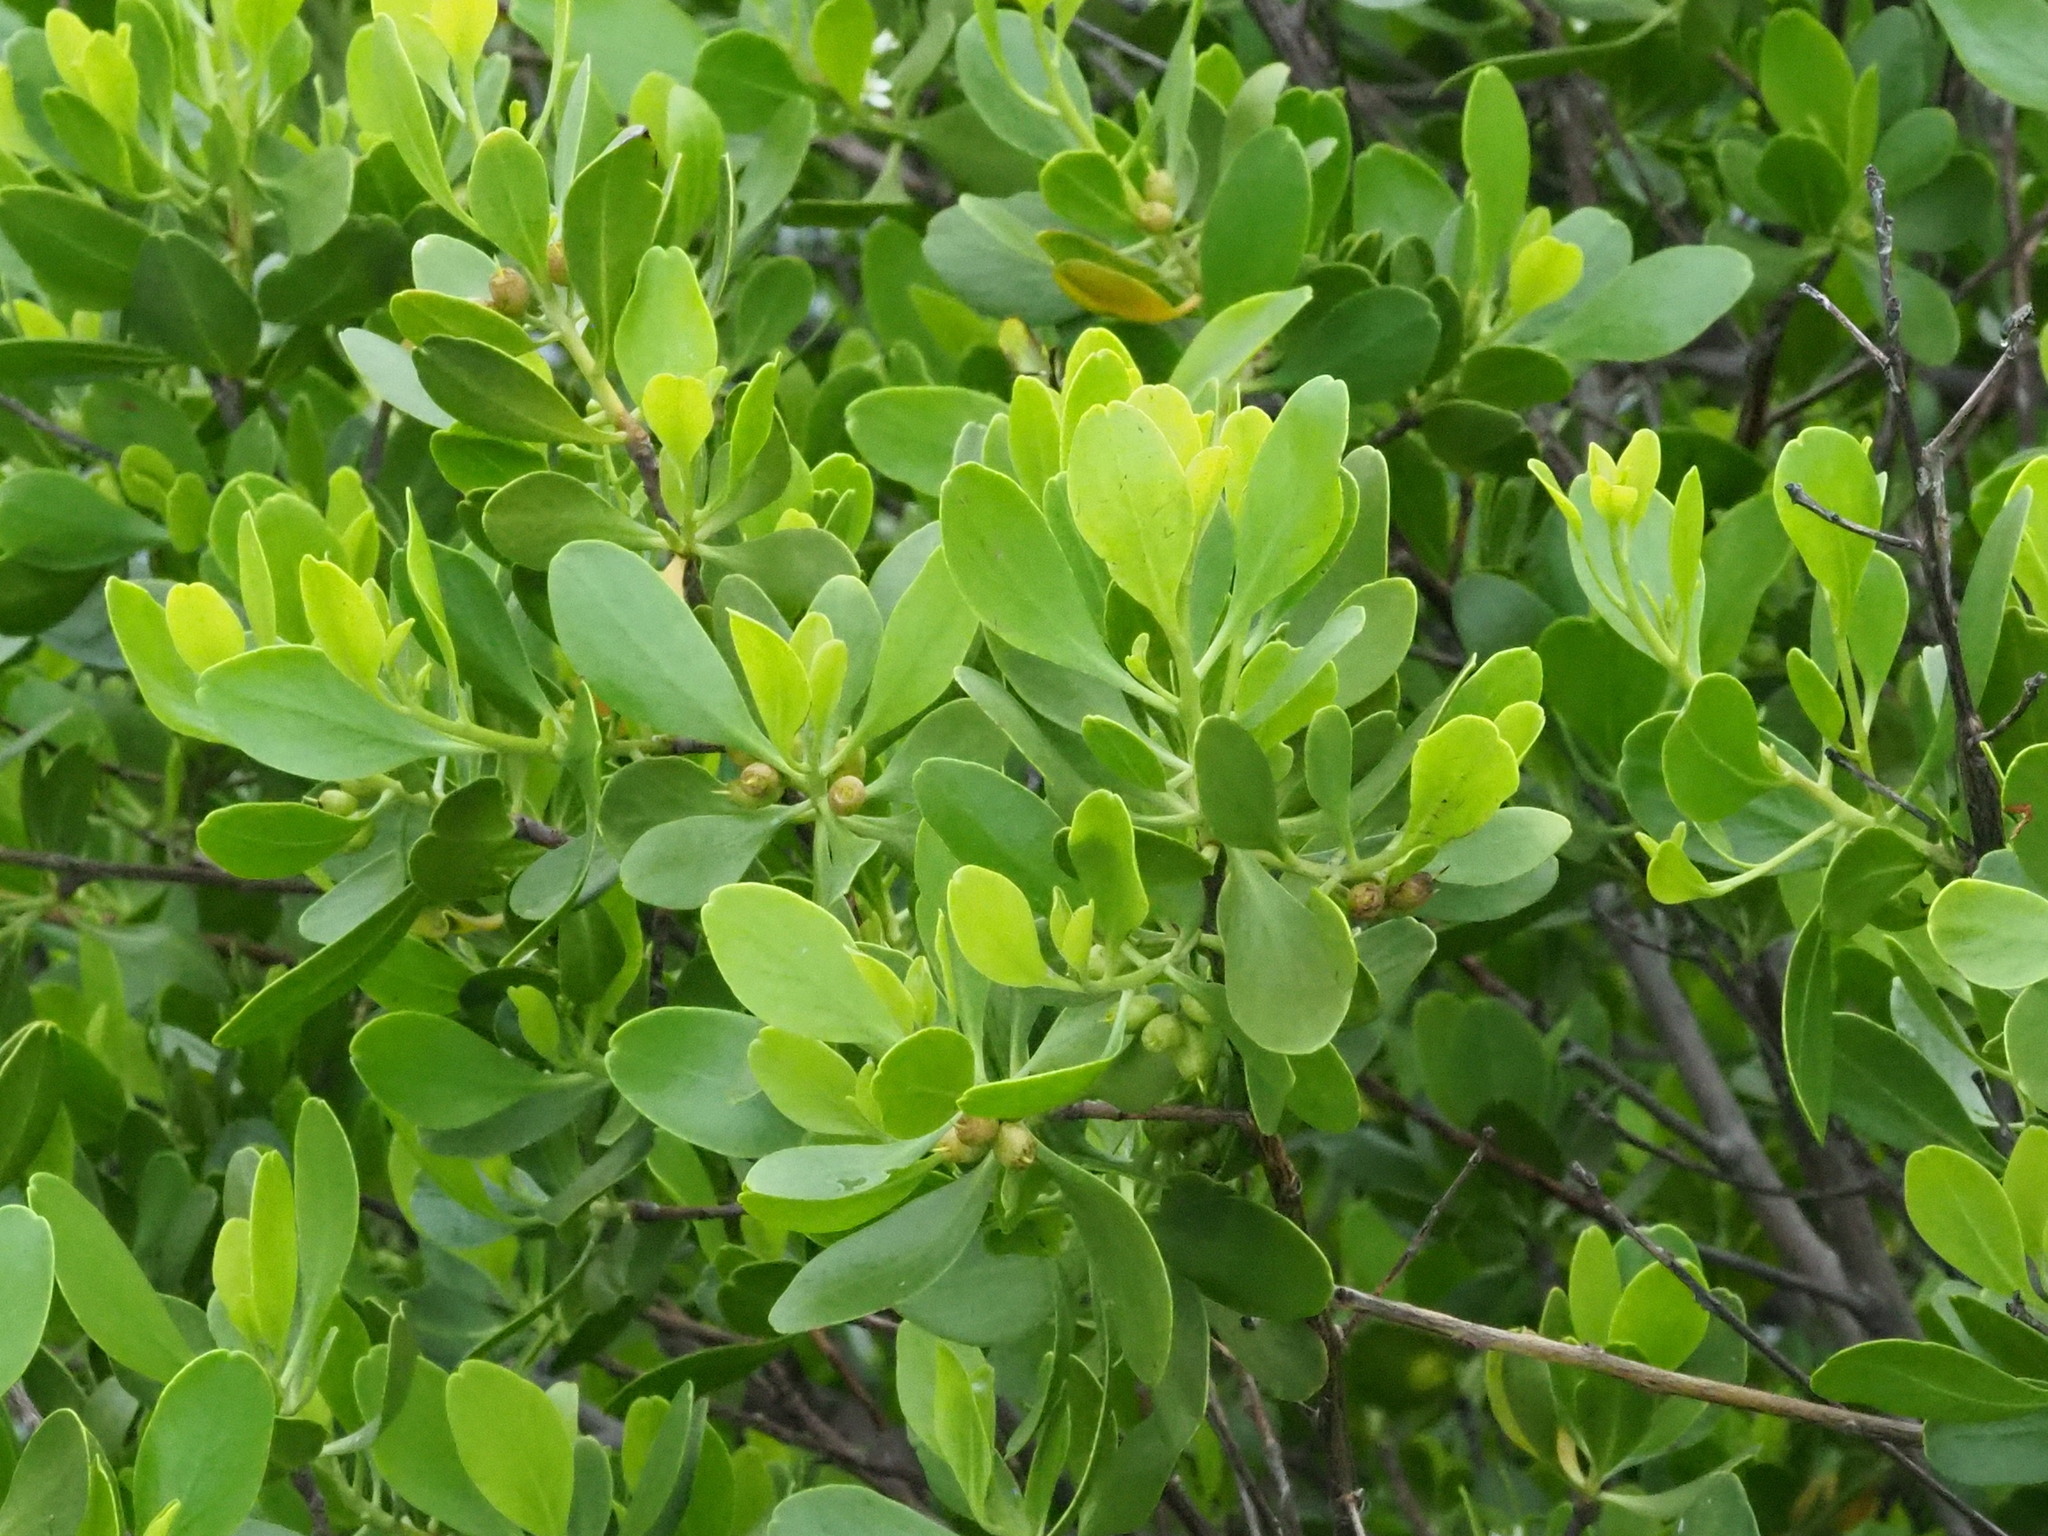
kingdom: Plantae
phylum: Tracheophyta
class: Magnoliopsida
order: Myrtales
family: Combretaceae
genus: Lumnitzera
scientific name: Lumnitzera racemosa
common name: White-flowered black mangrove
